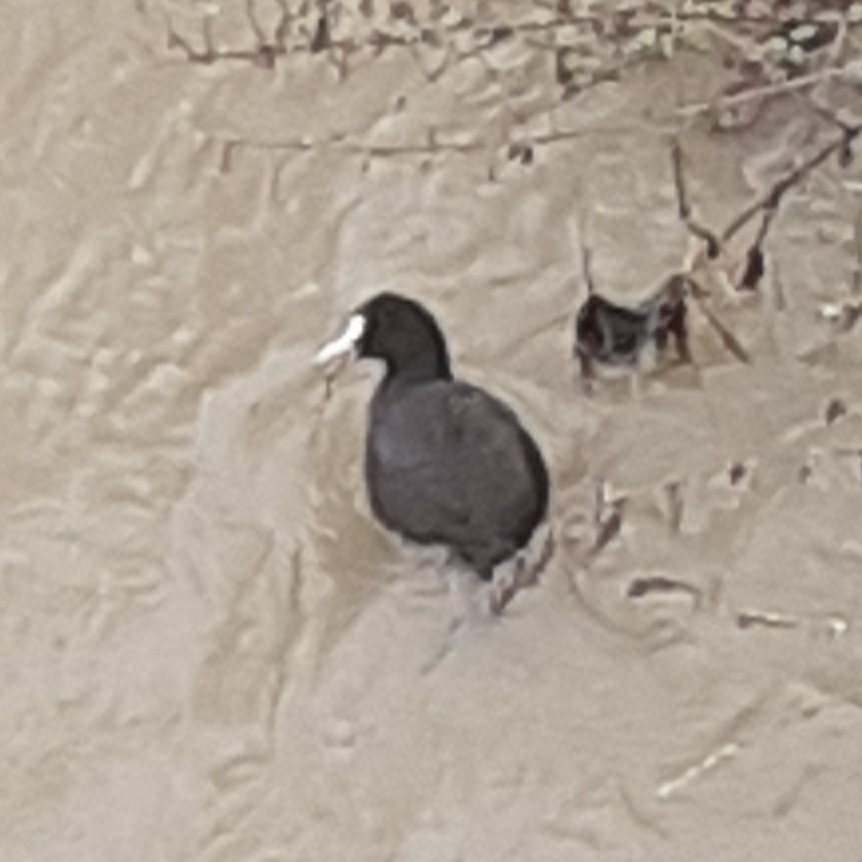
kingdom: Animalia
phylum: Chordata
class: Aves
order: Gruiformes
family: Rallidae
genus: Fulica
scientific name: Fulica atra
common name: Eurasian coot
